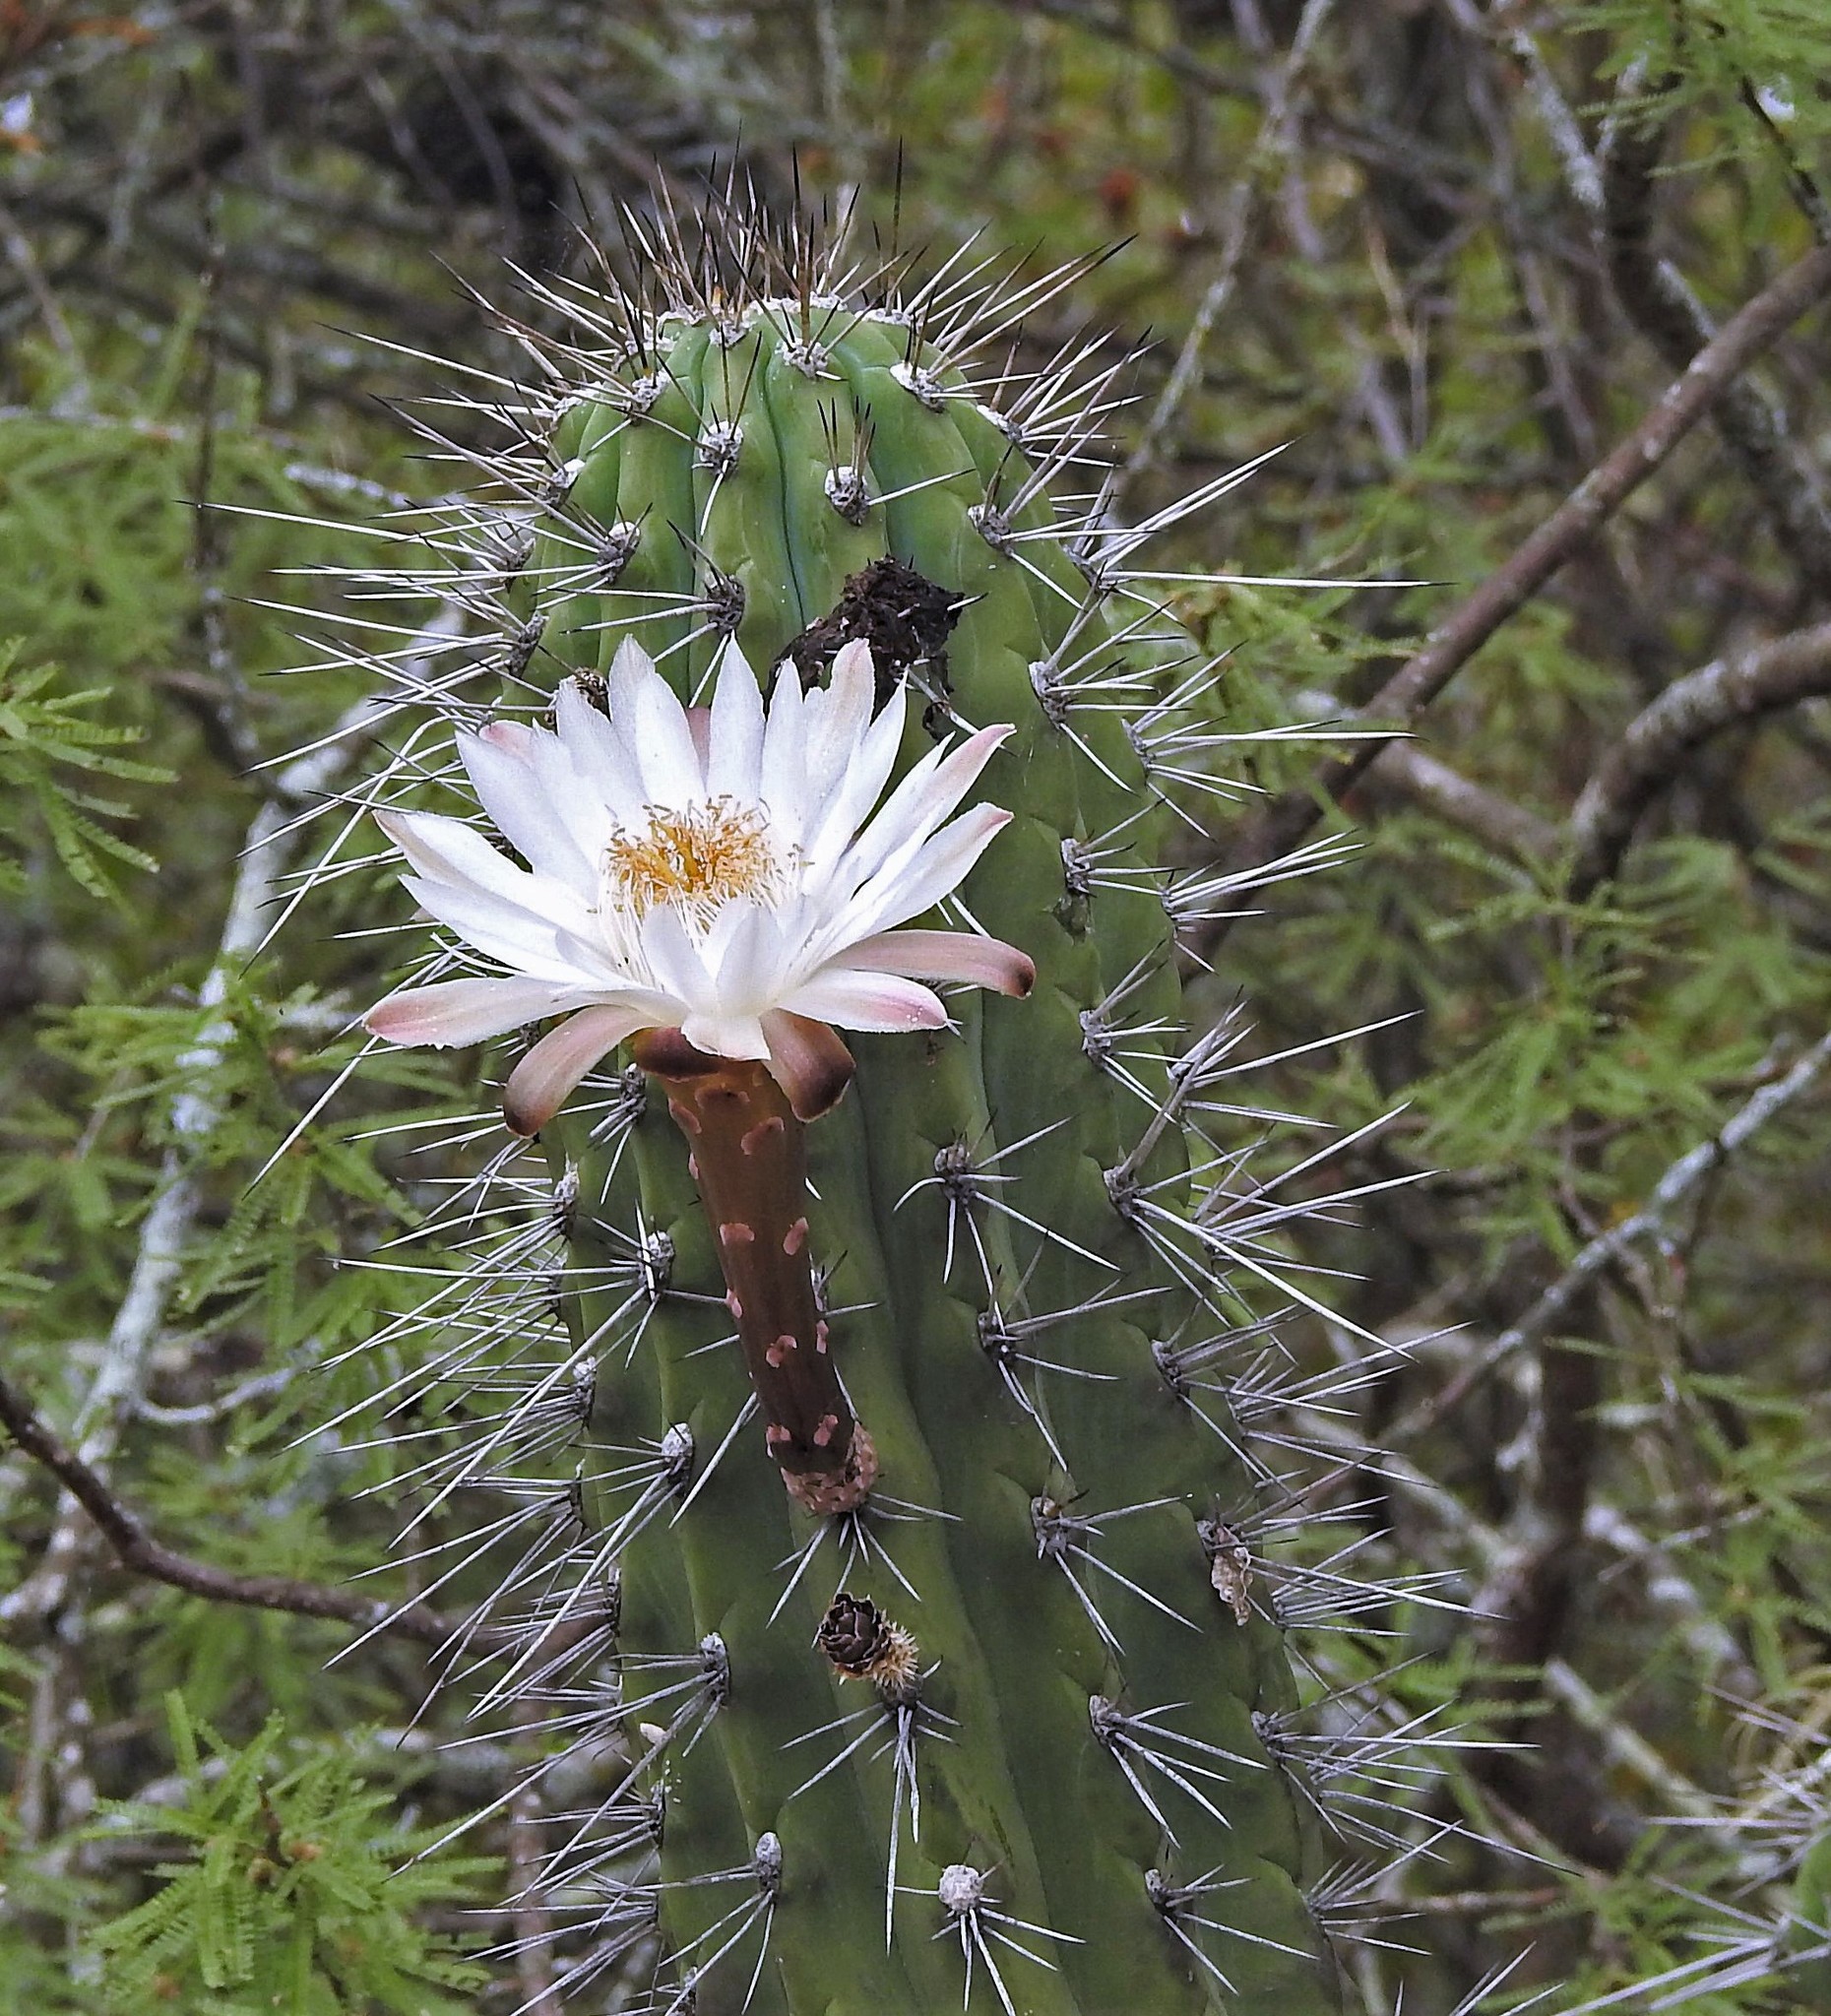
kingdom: Plantae
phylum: Tracheophyta
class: Magnoliopsida
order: Caryophyllales
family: Cactaceae
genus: Stetsonia
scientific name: Stetsonia coryne
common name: Toothpick cactus
